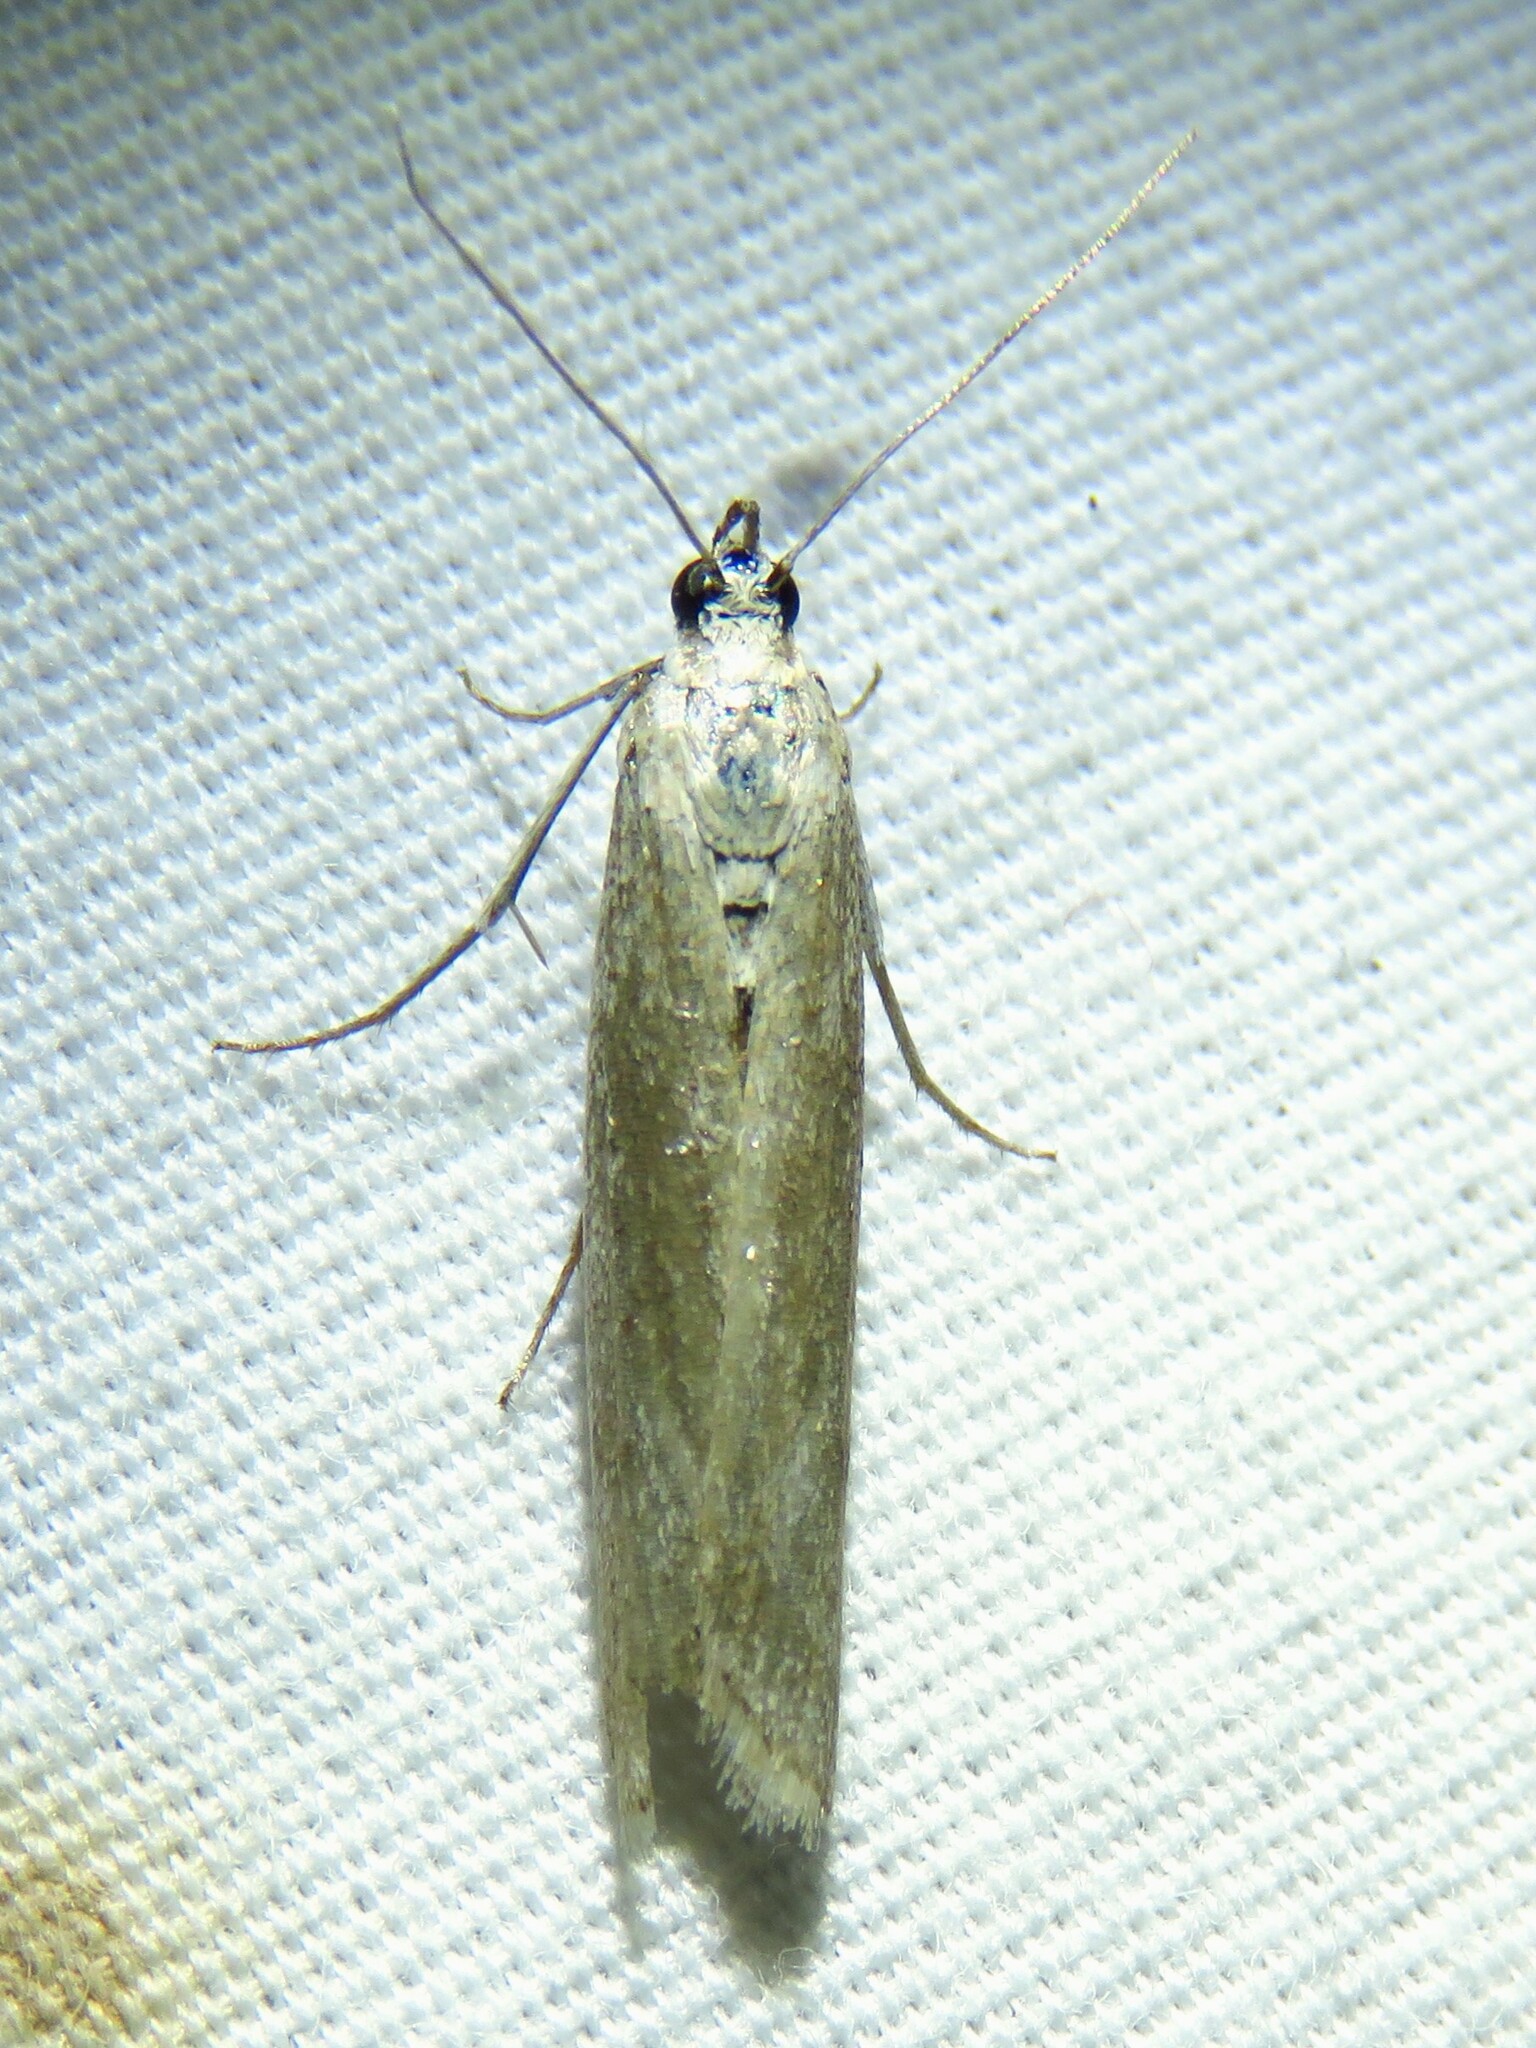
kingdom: Animalia
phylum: Arthropoda
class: Insecta
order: Lepidoptera
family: Pyralidae
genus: Homoeosoma
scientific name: Homoeosoma electella
